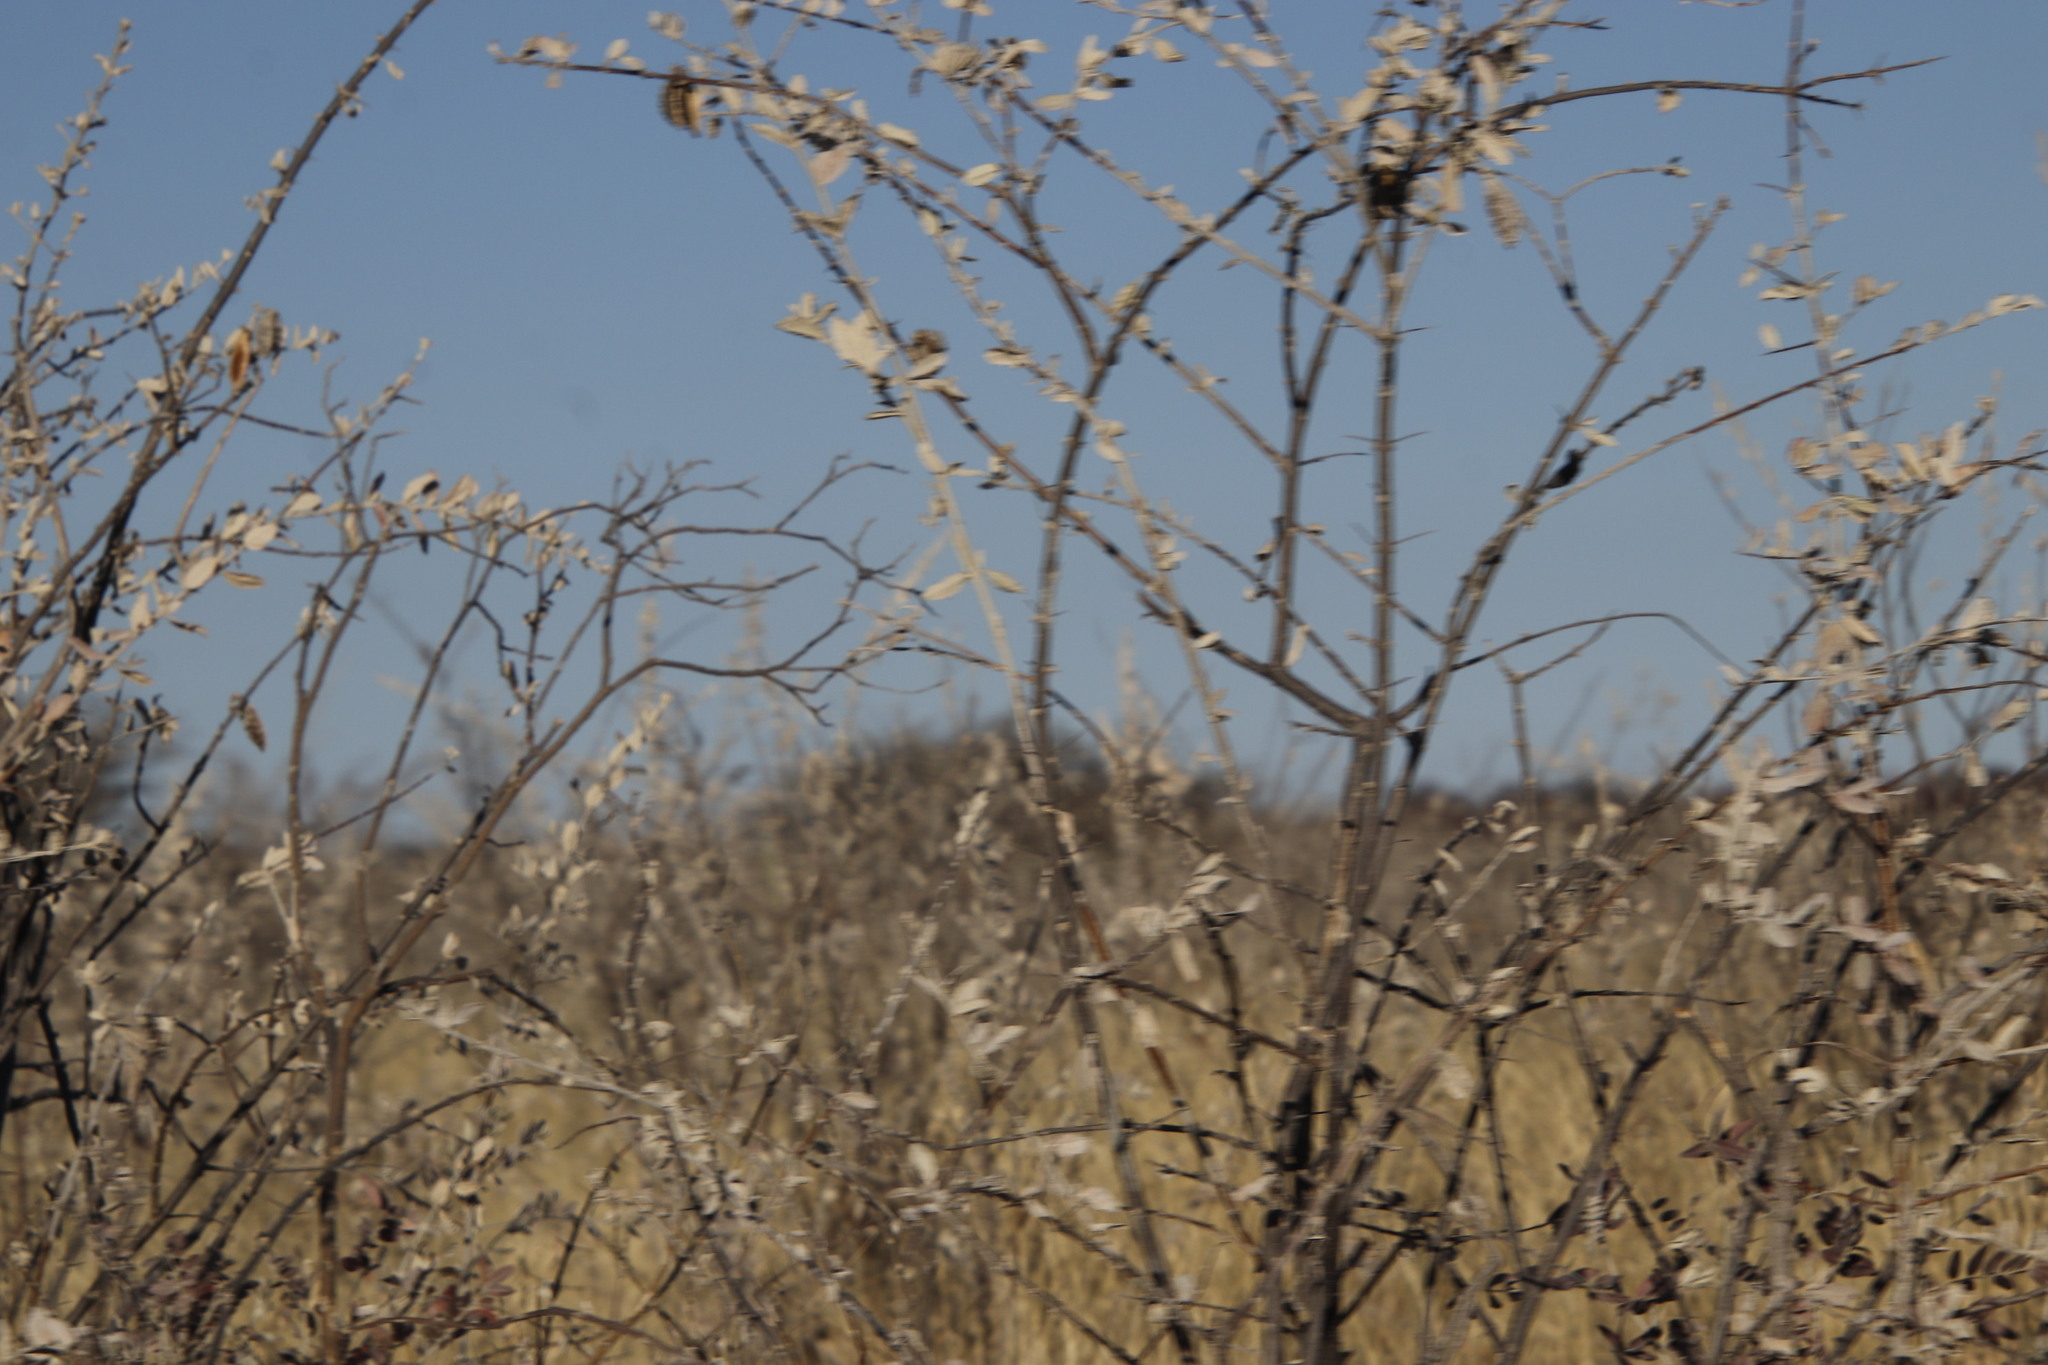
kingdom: Plantae
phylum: Tracheophyta
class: Magnoliopsida
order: Lamiales
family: Bignoniaceae
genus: Catophractes
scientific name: Catophractes alexandri
